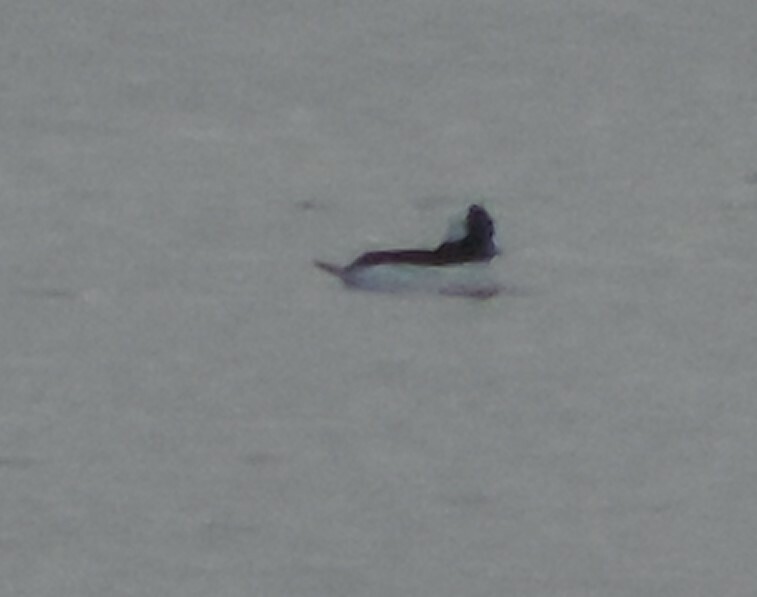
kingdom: Animalia
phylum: Chordata
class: Aves
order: Anseriformes
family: Anatidae
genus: Bucephala
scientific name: Bucephala albeola
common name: Bufflehead
